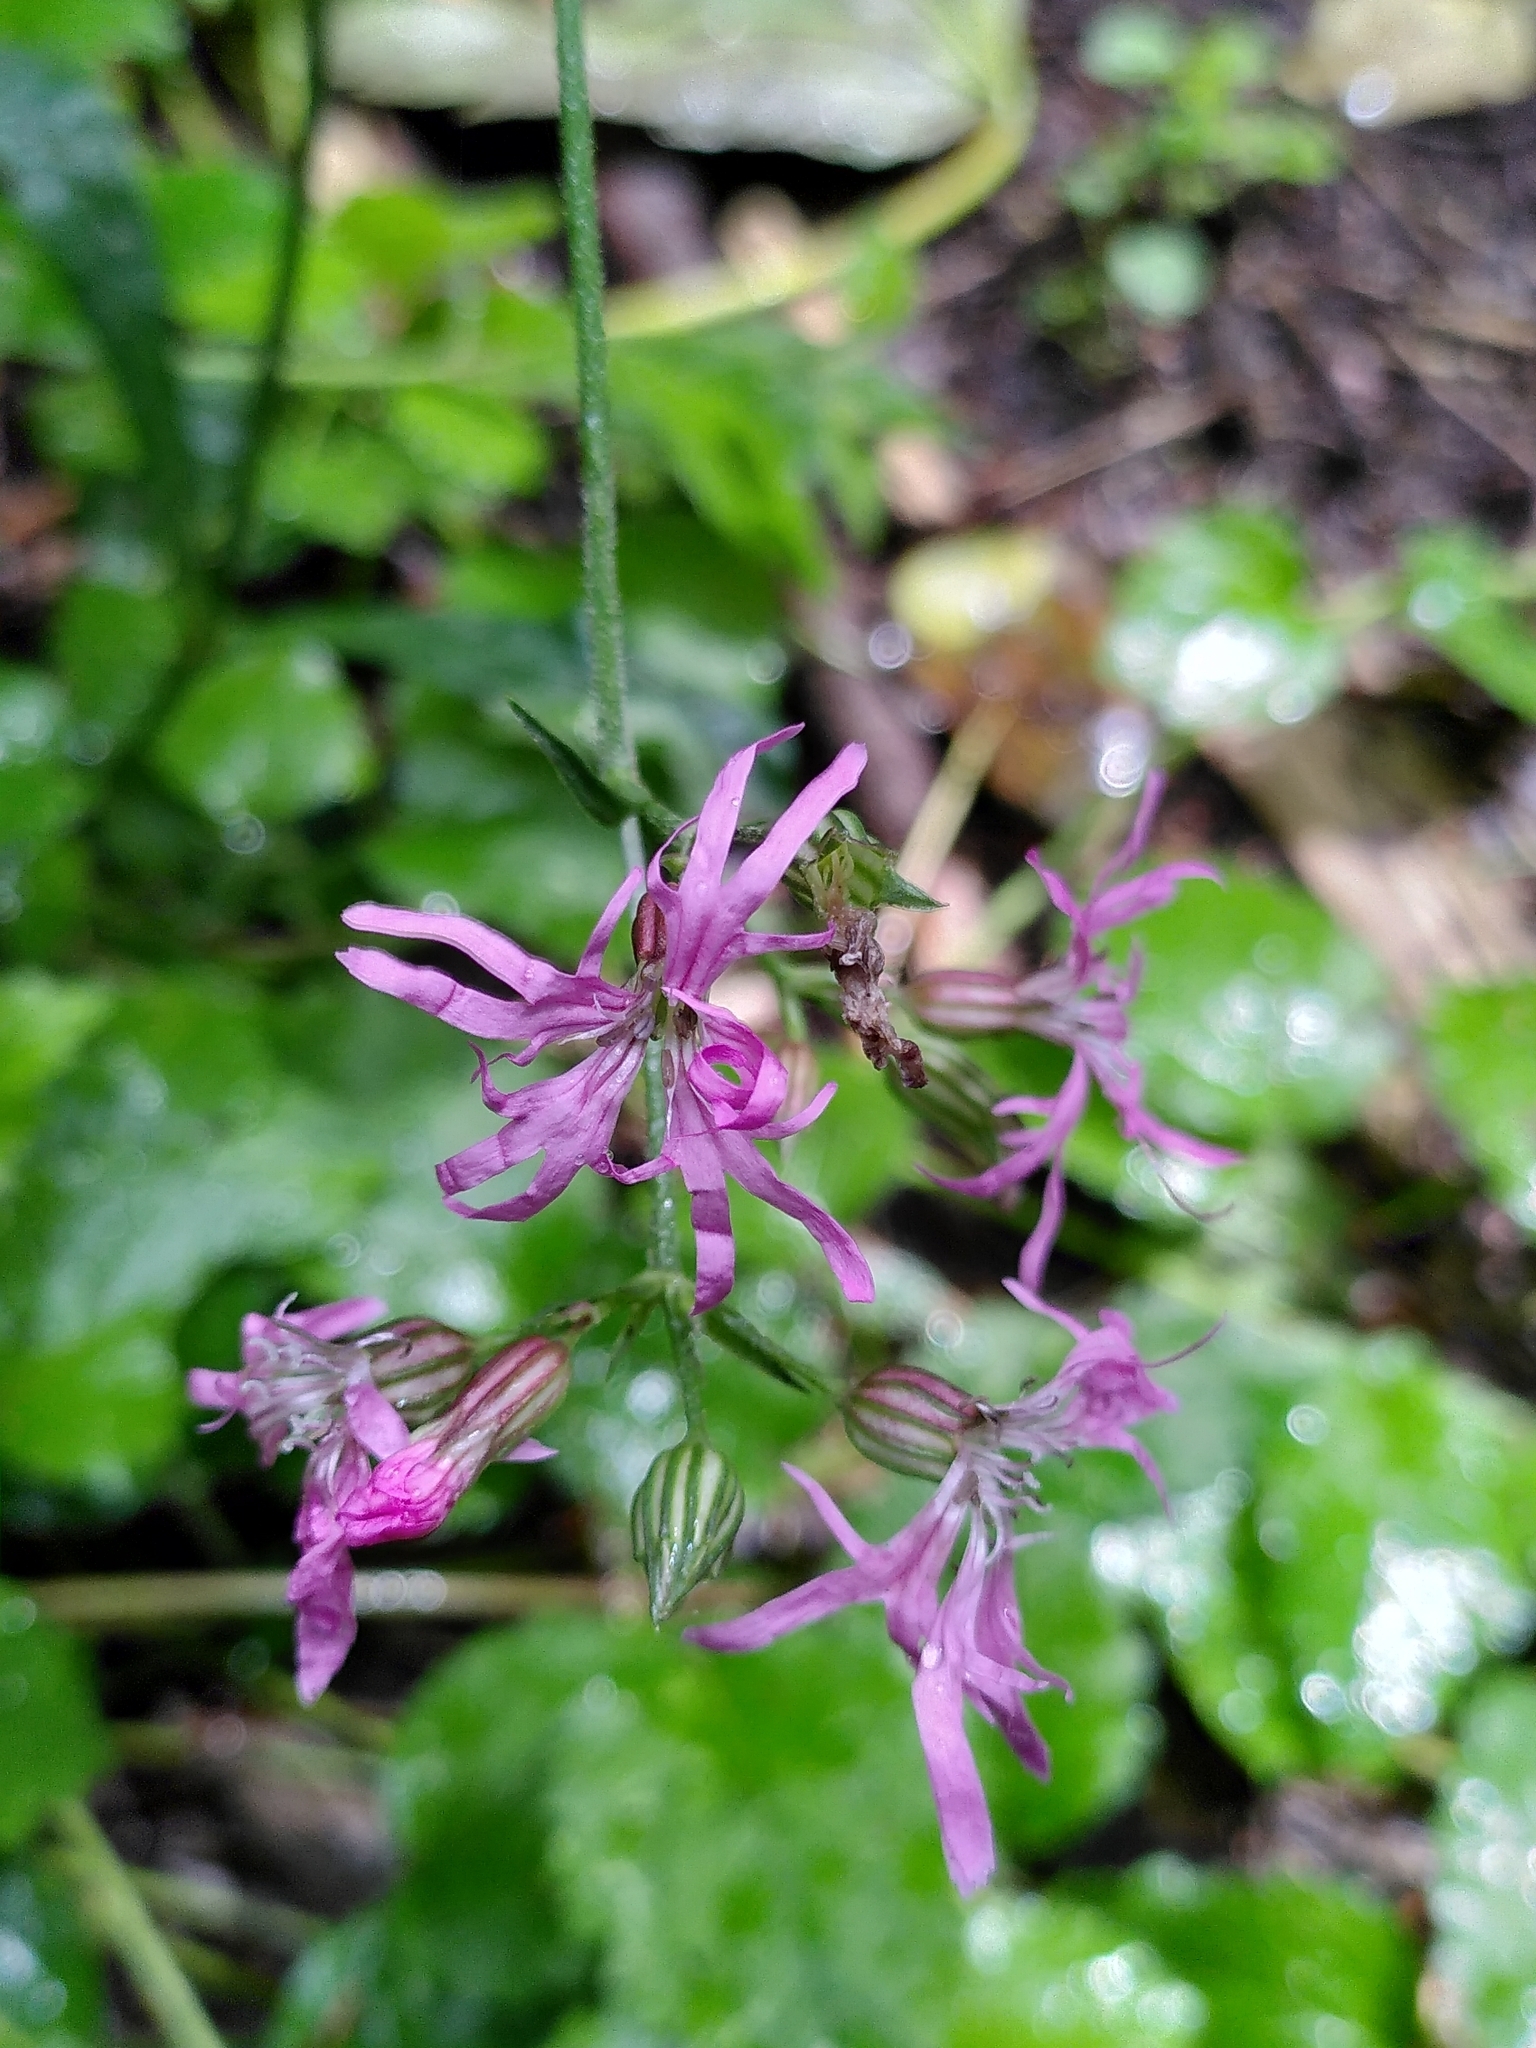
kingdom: Plantae
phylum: Tracheophyta
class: Magnoliopsida
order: Caryophyllales
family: Caryophyllaceae
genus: Silene
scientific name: Silene flos-cuculi
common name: Ragged-robin
